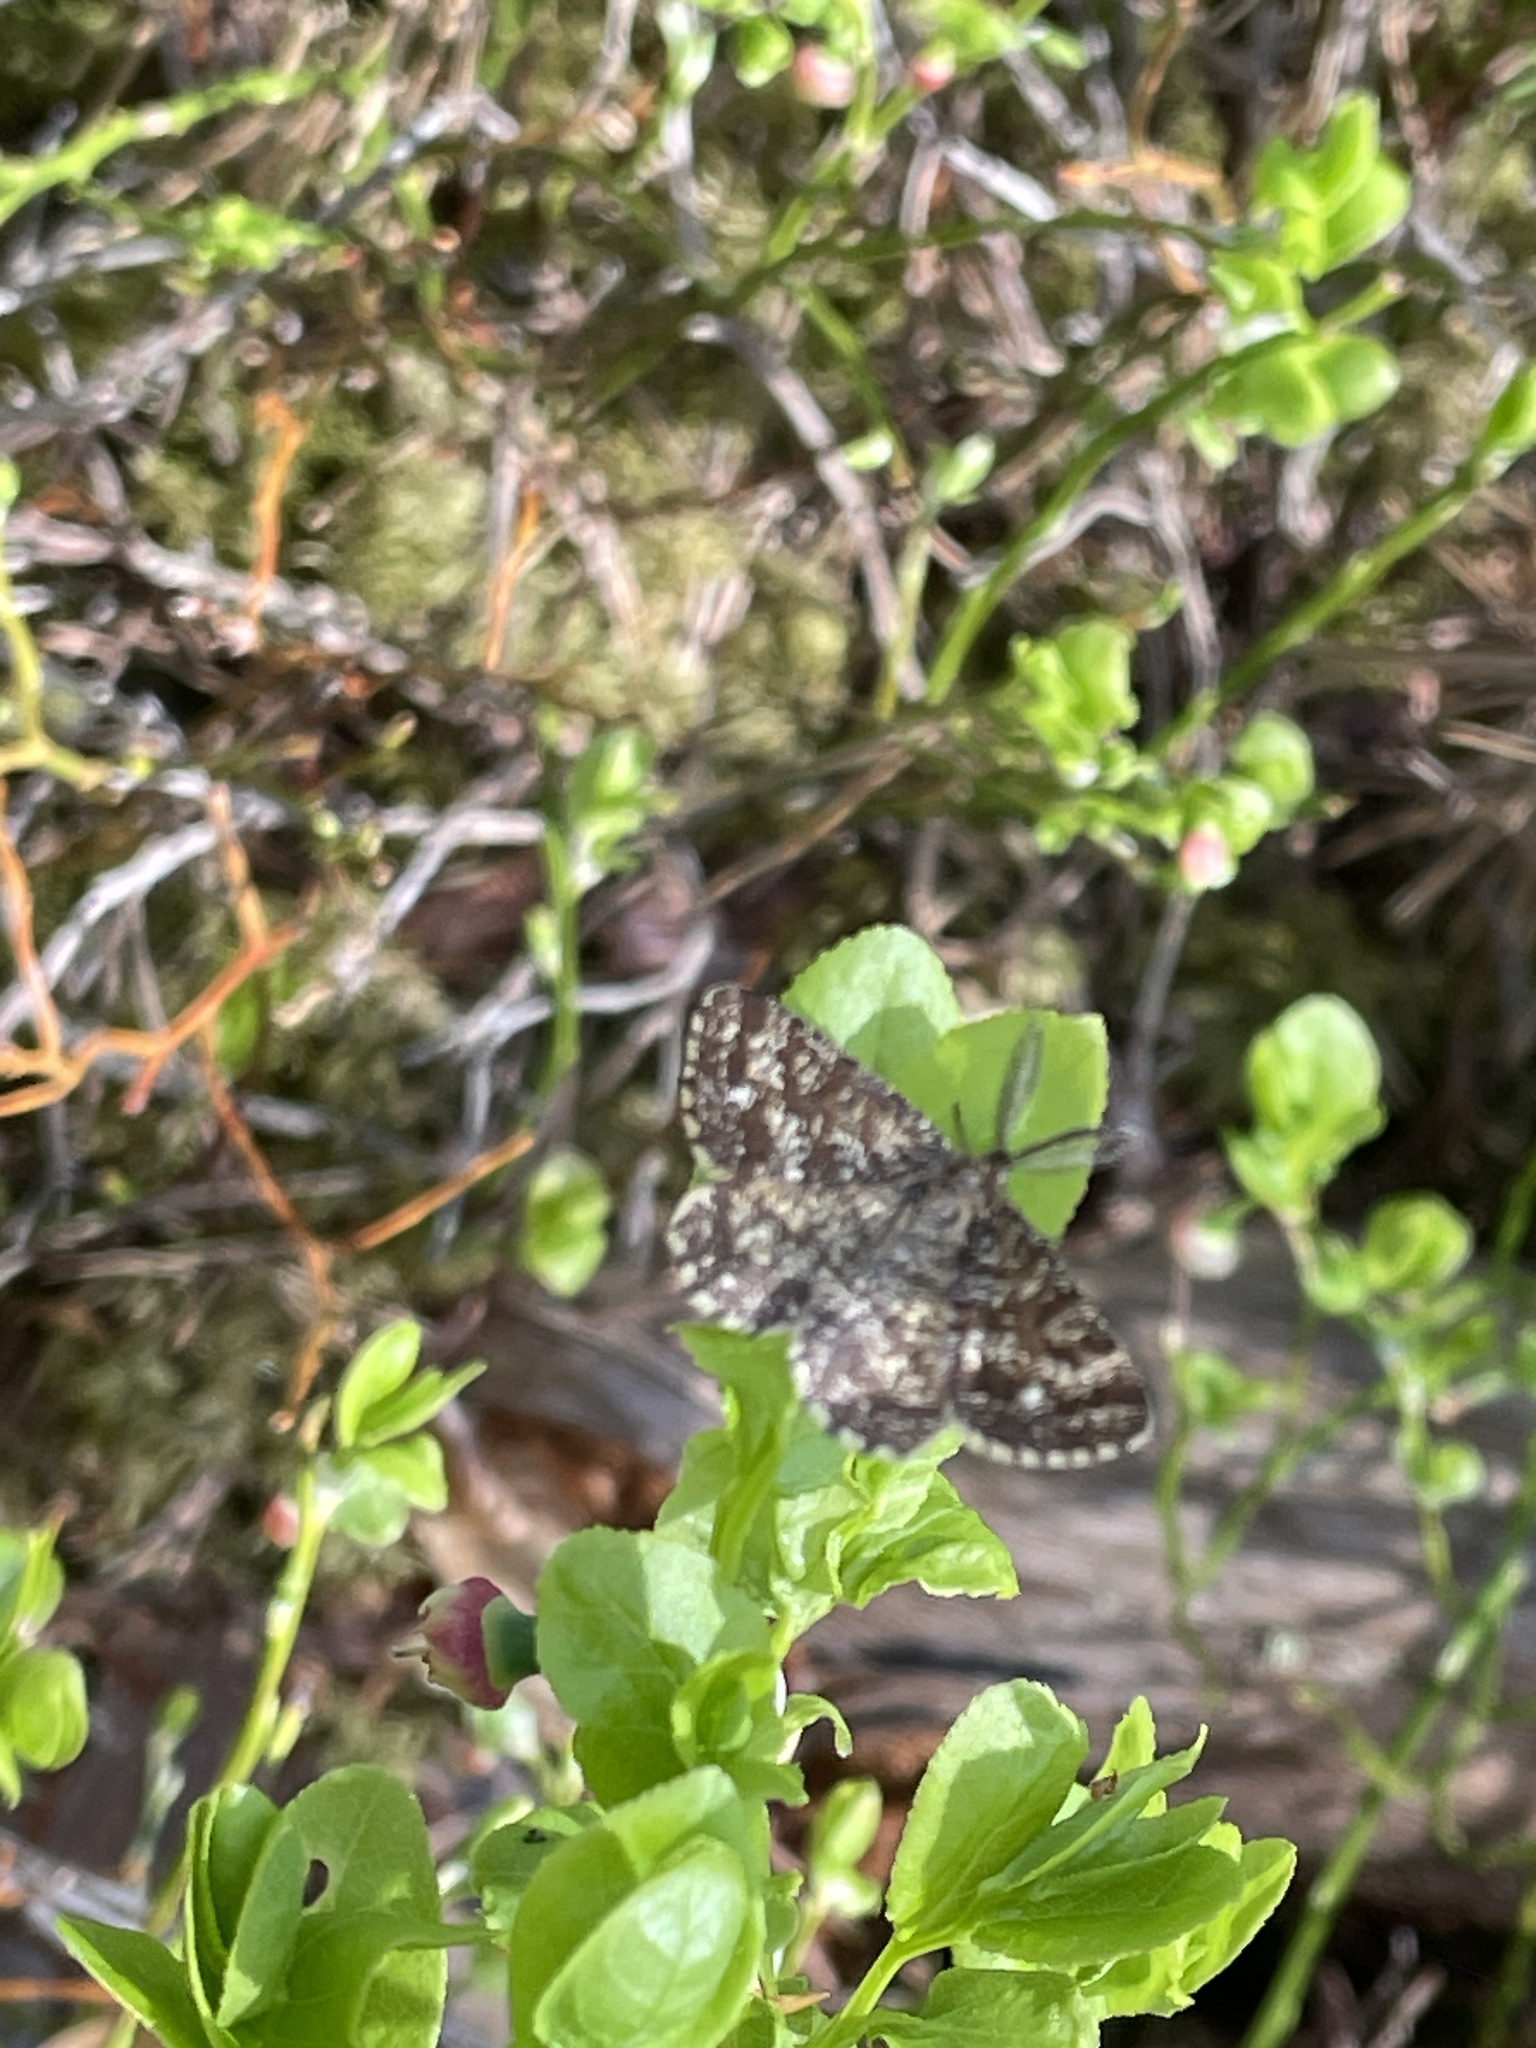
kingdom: Animalia
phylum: Arthropoda
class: Insecta
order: Lepidoptera
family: Geometridae
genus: Ematurga
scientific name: Ematurga atomaria
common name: Common heath
